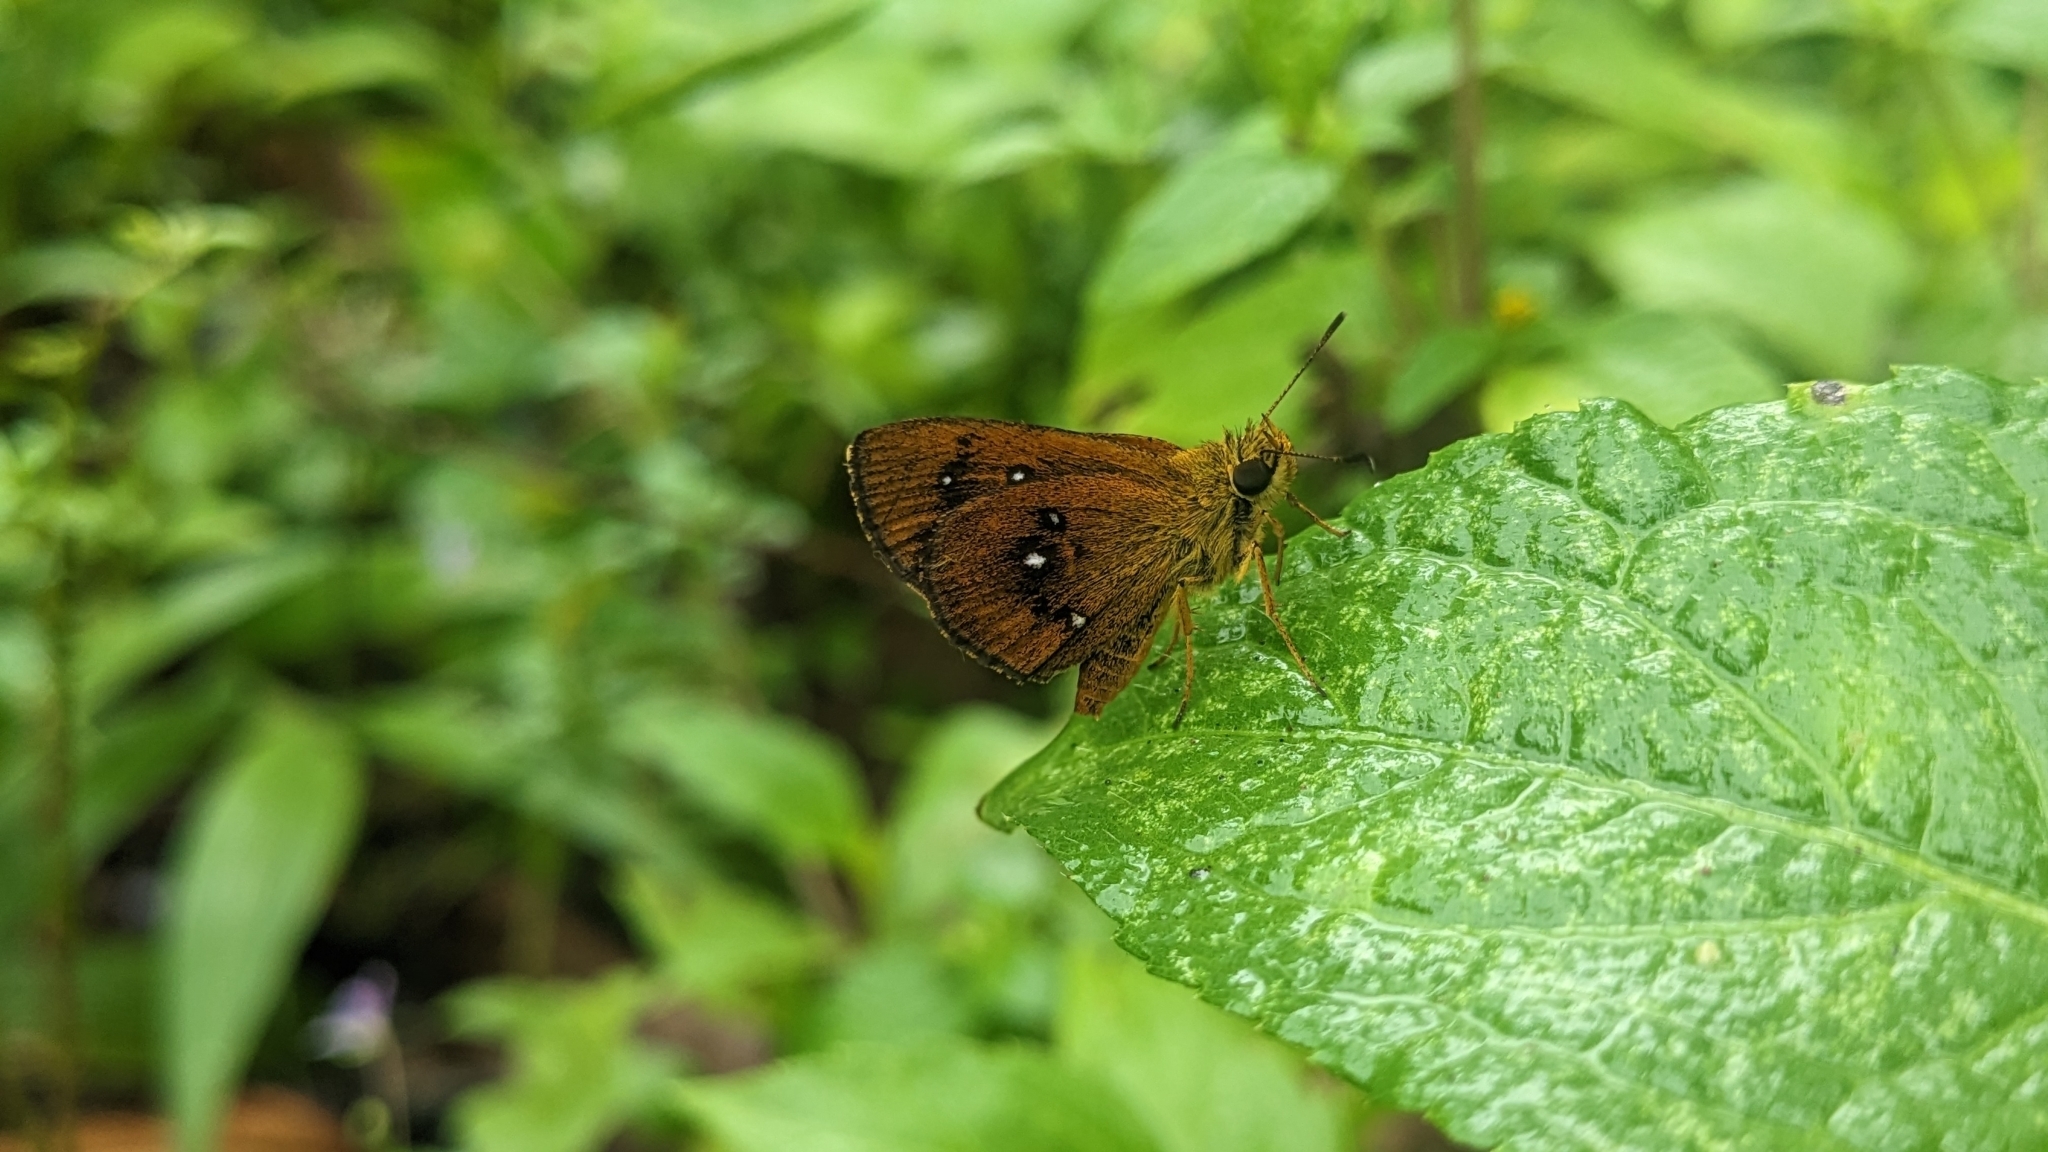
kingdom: Animalia
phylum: Arthropoda
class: Insecta
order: Lepidoptera
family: Hesperiidae
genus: Iambrix
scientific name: Iambrix salsala
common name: Chestnut bob
